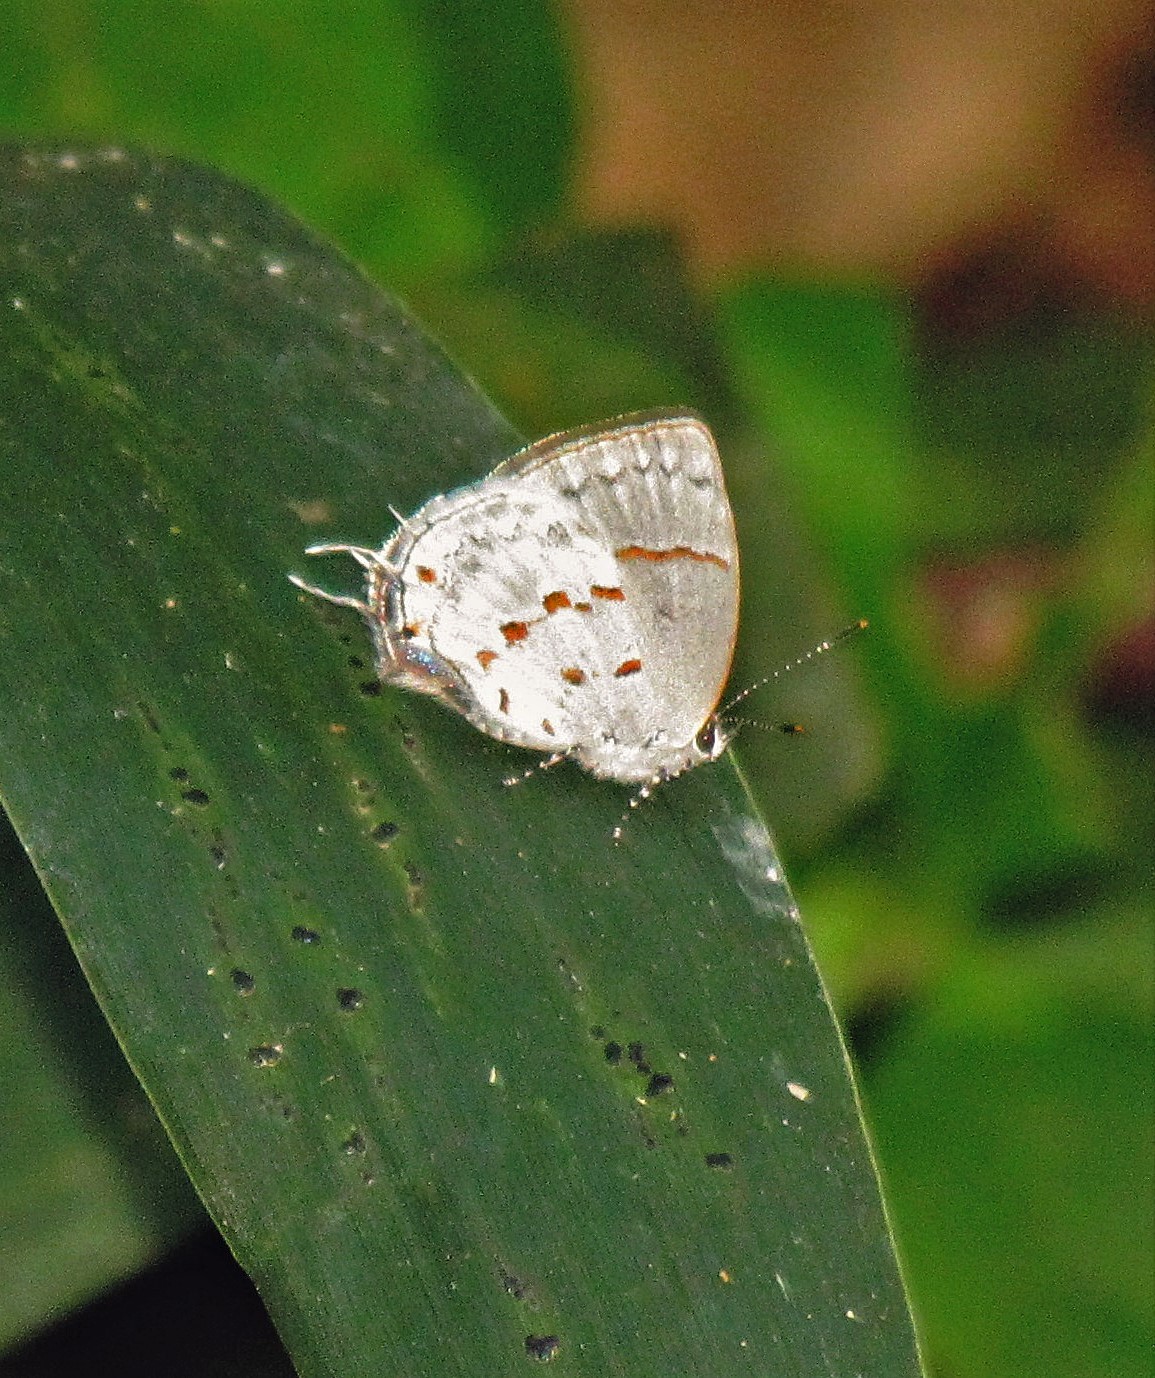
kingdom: Animalia
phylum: Arthropoda
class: Insecta
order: Lepidoptera
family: Lycaenidae
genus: Thecla
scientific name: Thecla celmus
